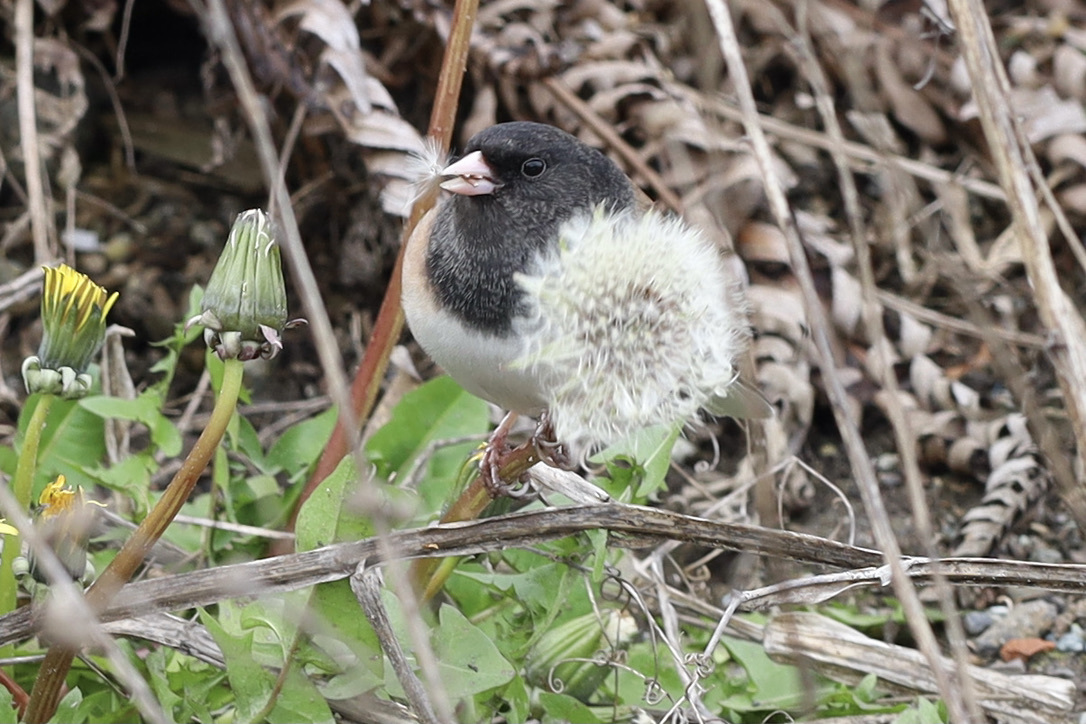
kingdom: Animalia
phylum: Chordata
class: Aves
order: Passeriformes
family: Passerellidae
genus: Junco
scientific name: Junco hyemalis
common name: Dark-eyed junco
